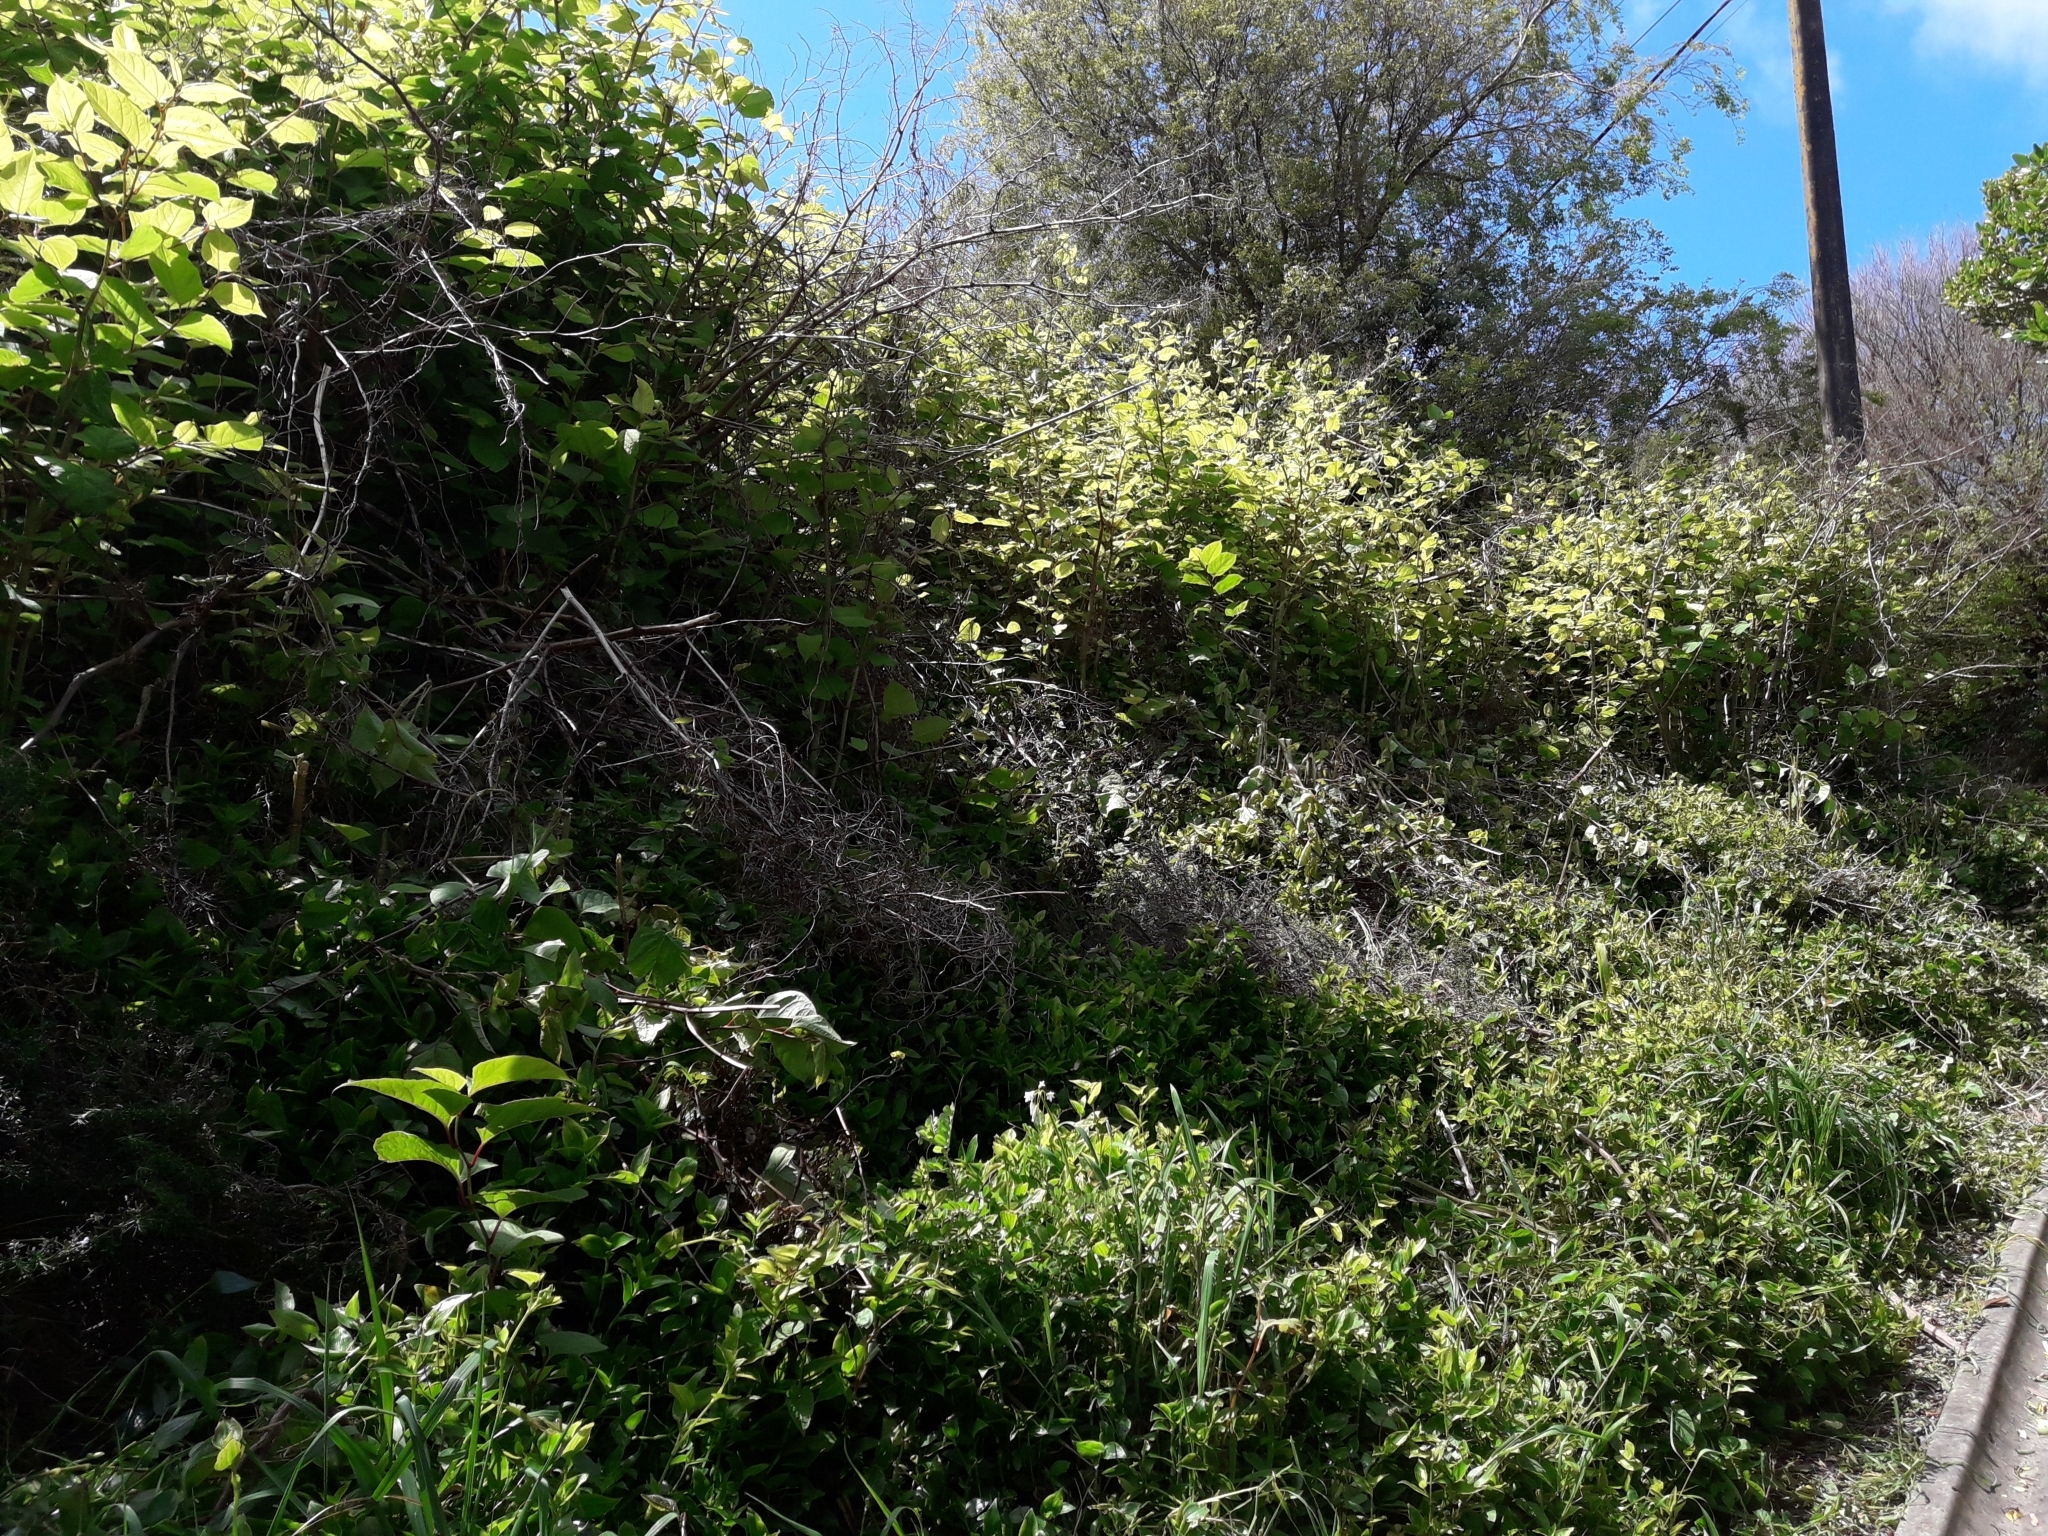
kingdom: Plantae
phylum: Tracheophyta
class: Magnoliopsida
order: Caryophyllales
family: Polygonaceae
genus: Reynoutria
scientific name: Reynoutria japonica
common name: Japanese knotweed
